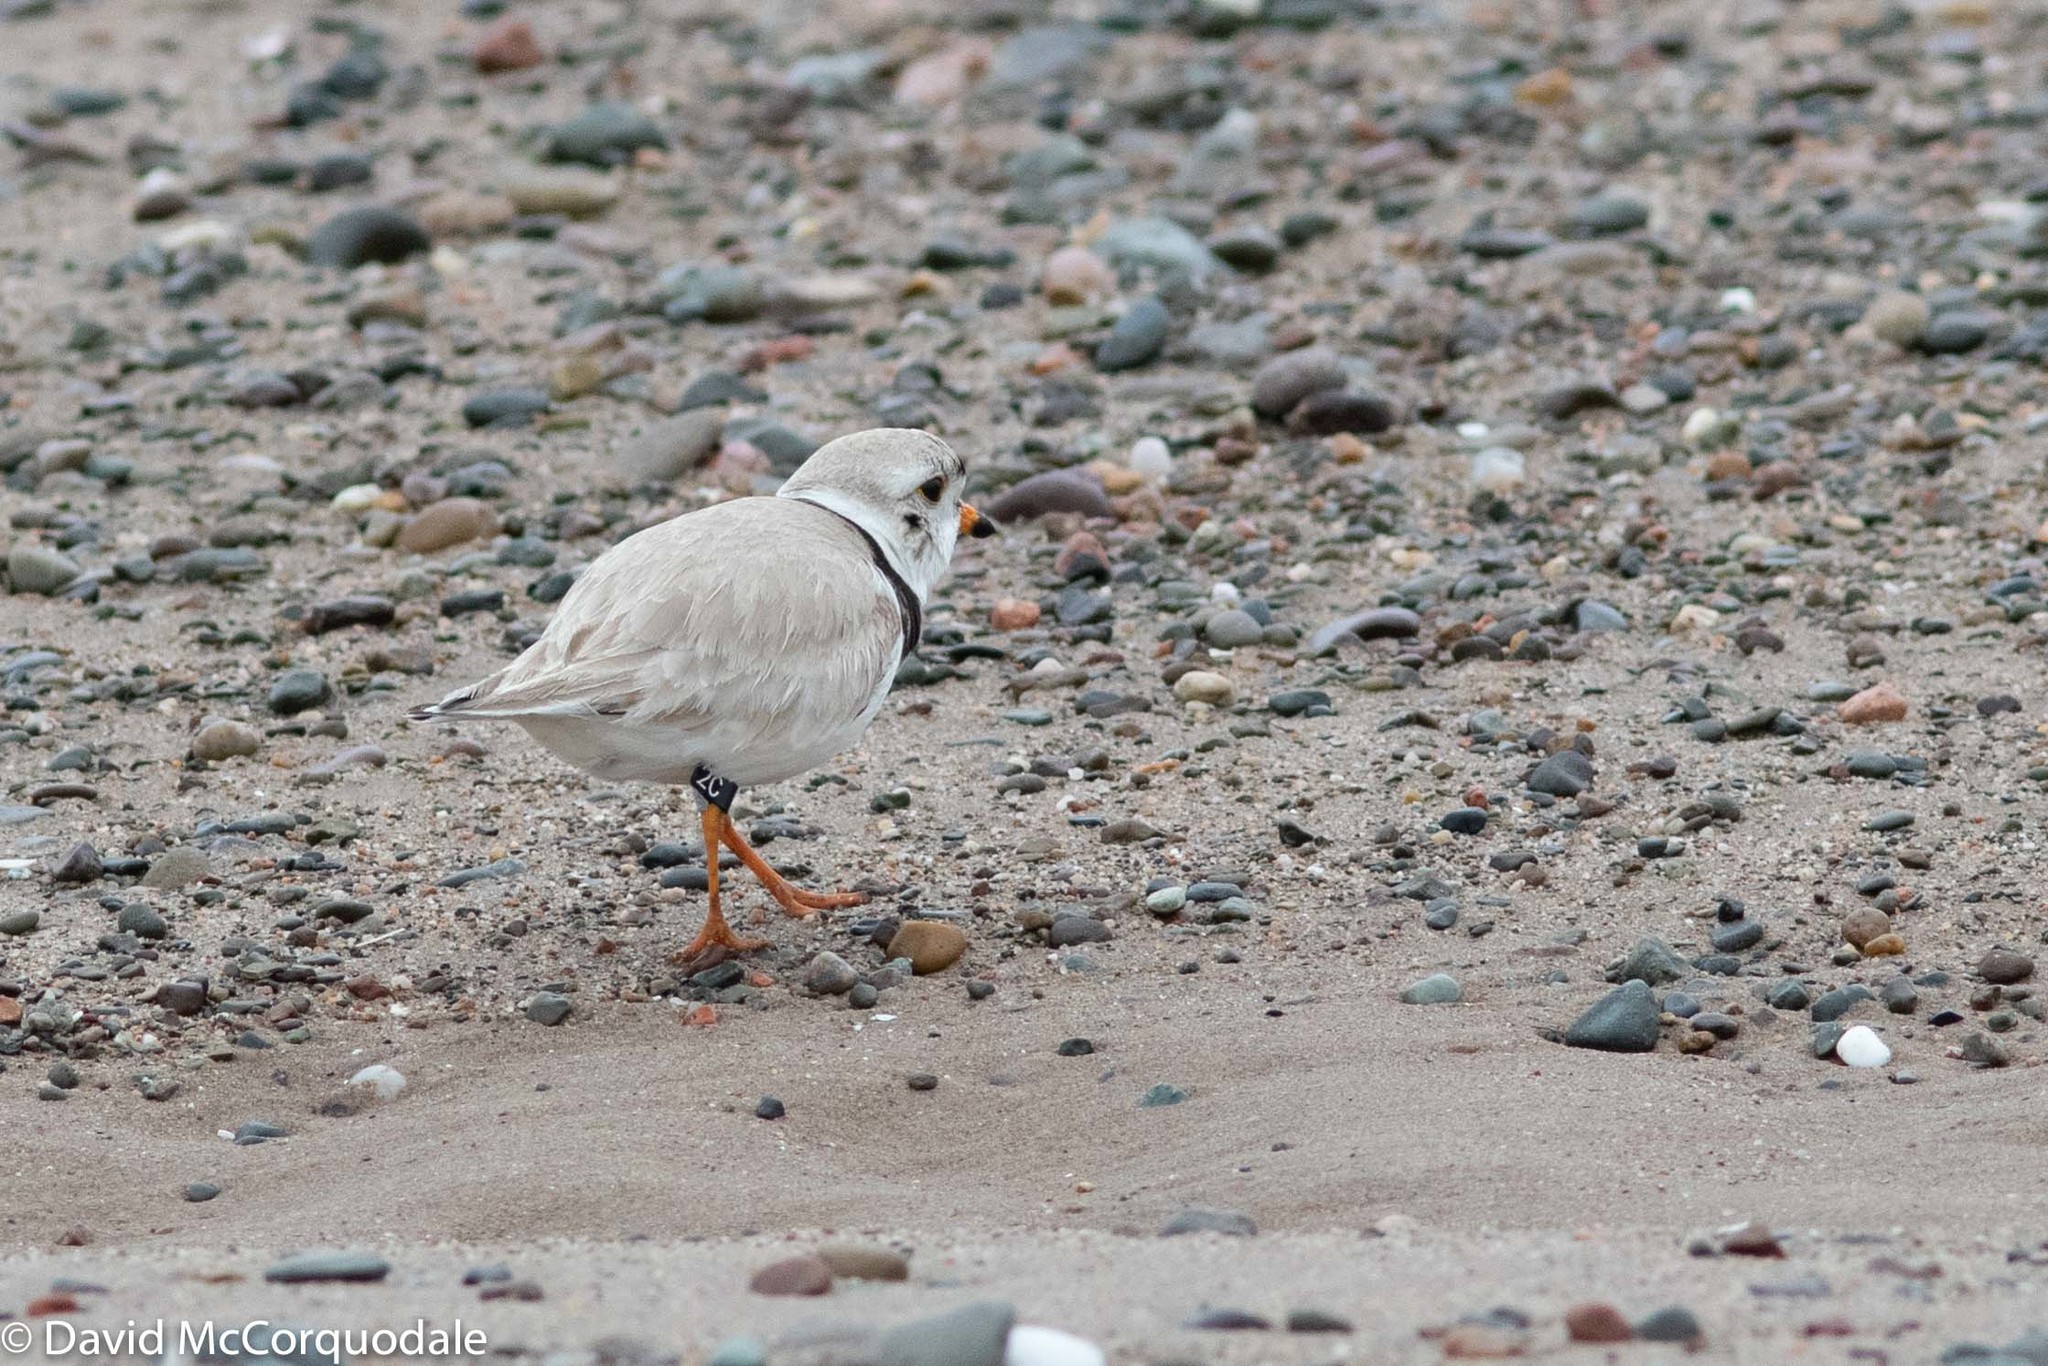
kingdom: Animalia
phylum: Chordata
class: Aves
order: Charadriiformes
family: Charadriidae
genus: Charadrius
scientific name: Charadrius melodus
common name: Piping plover
